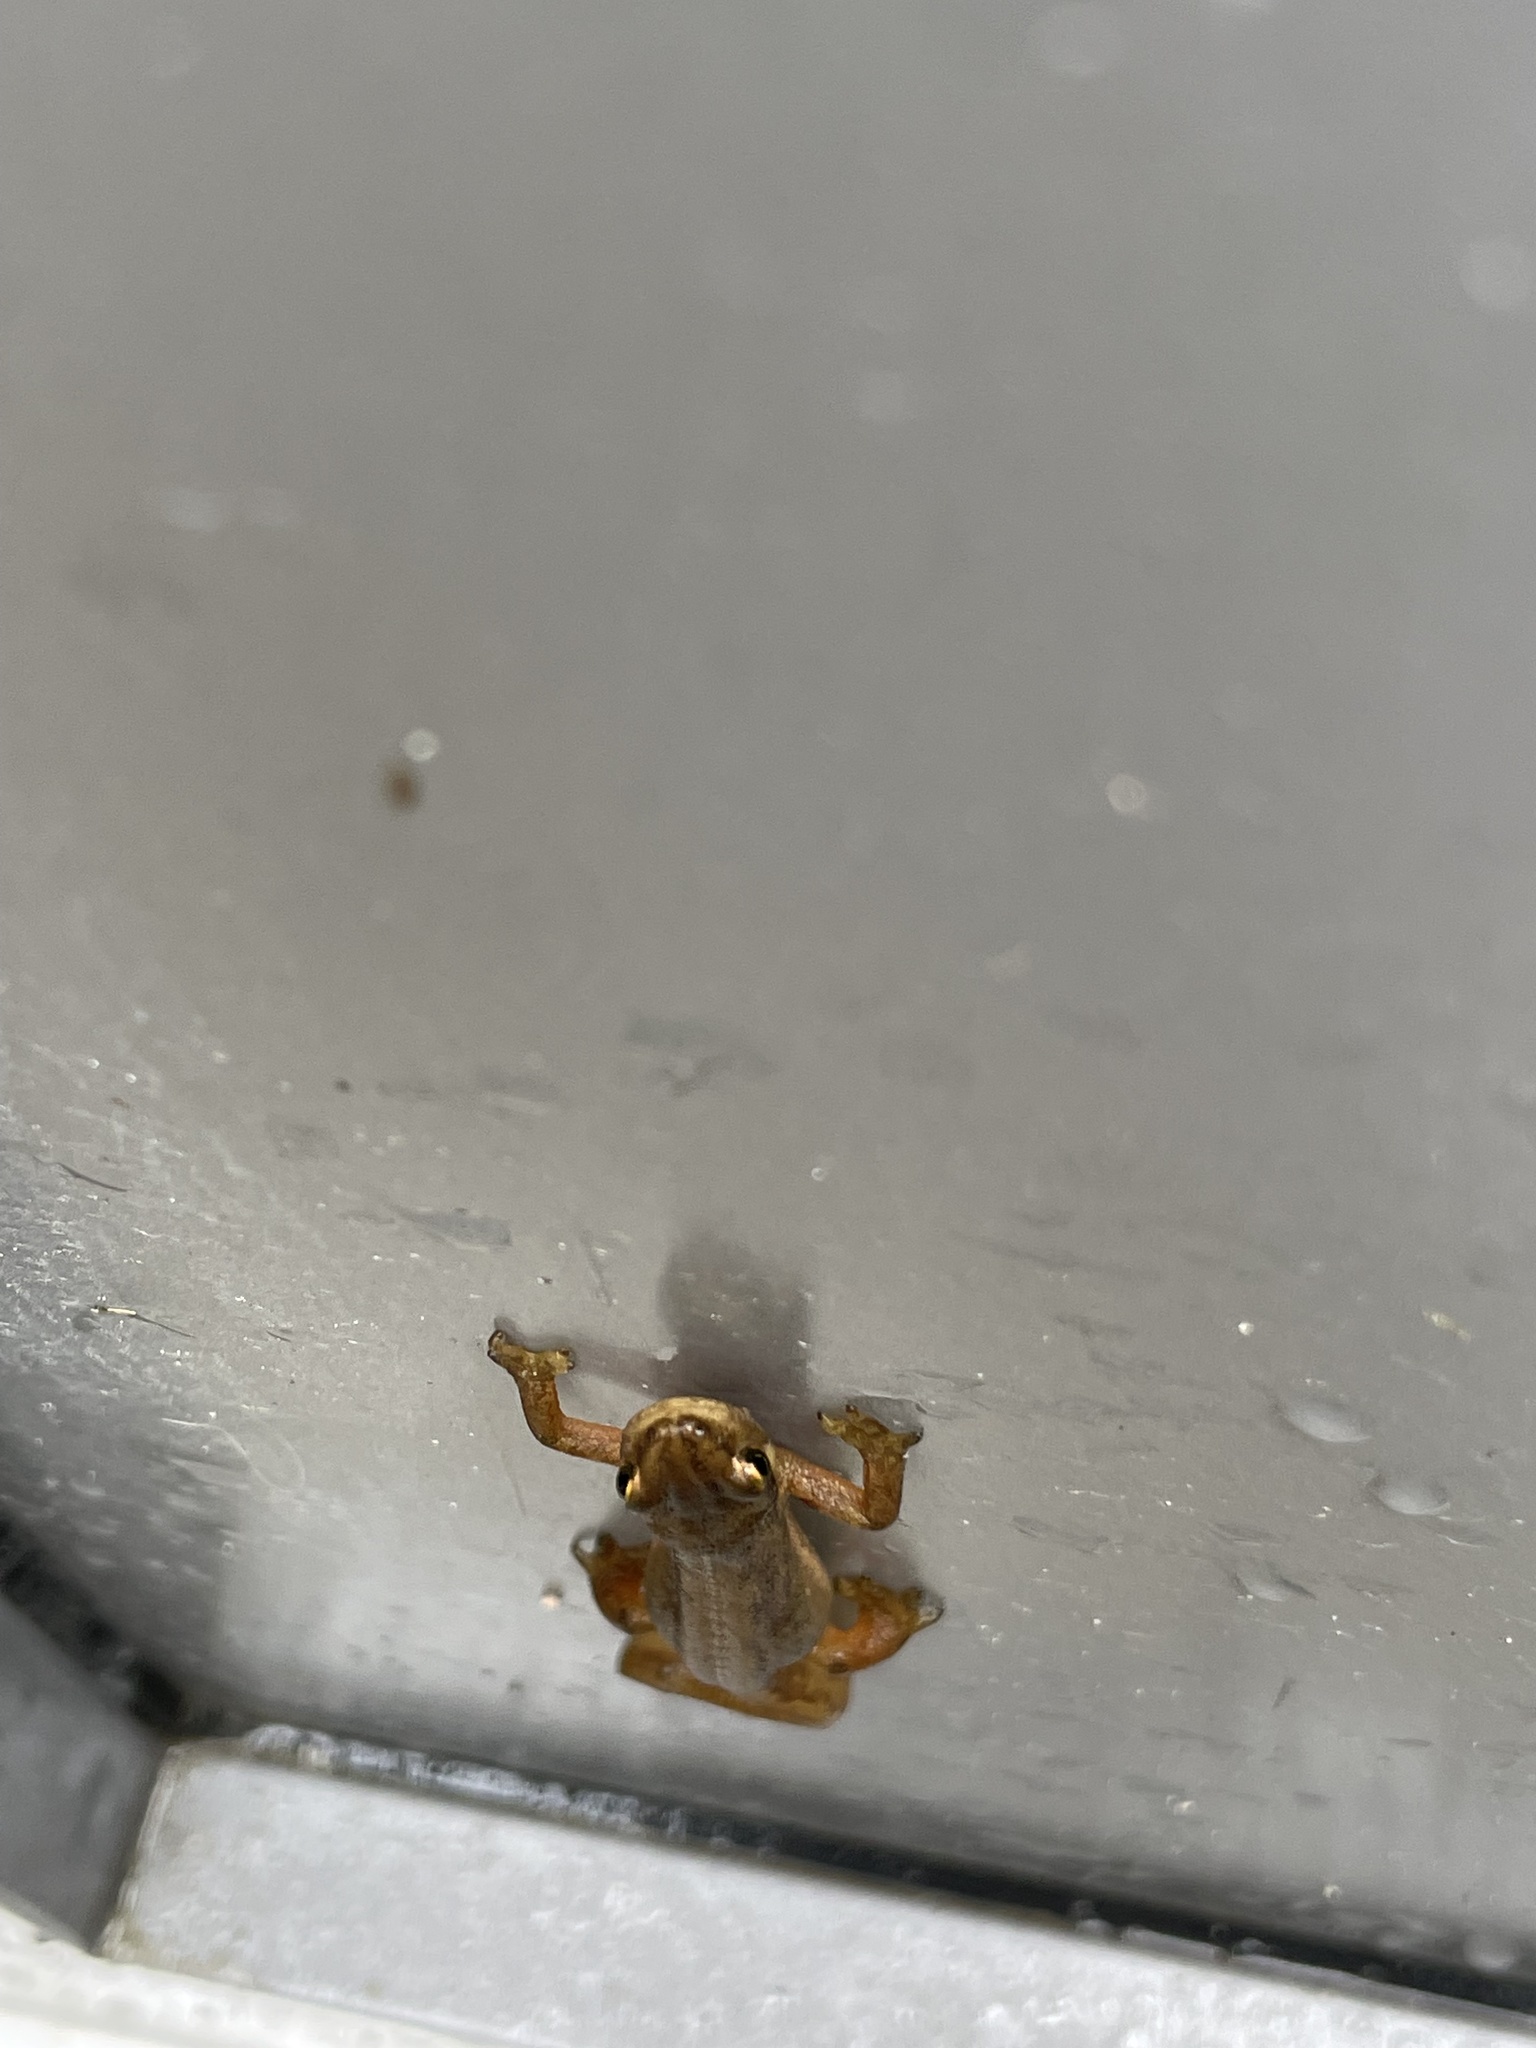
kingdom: Animalia
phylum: Chordata
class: Amphibia
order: Caudata
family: Salamandridae
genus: Lissotriton
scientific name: Lissotriton vulgaris
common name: Smooth newt
